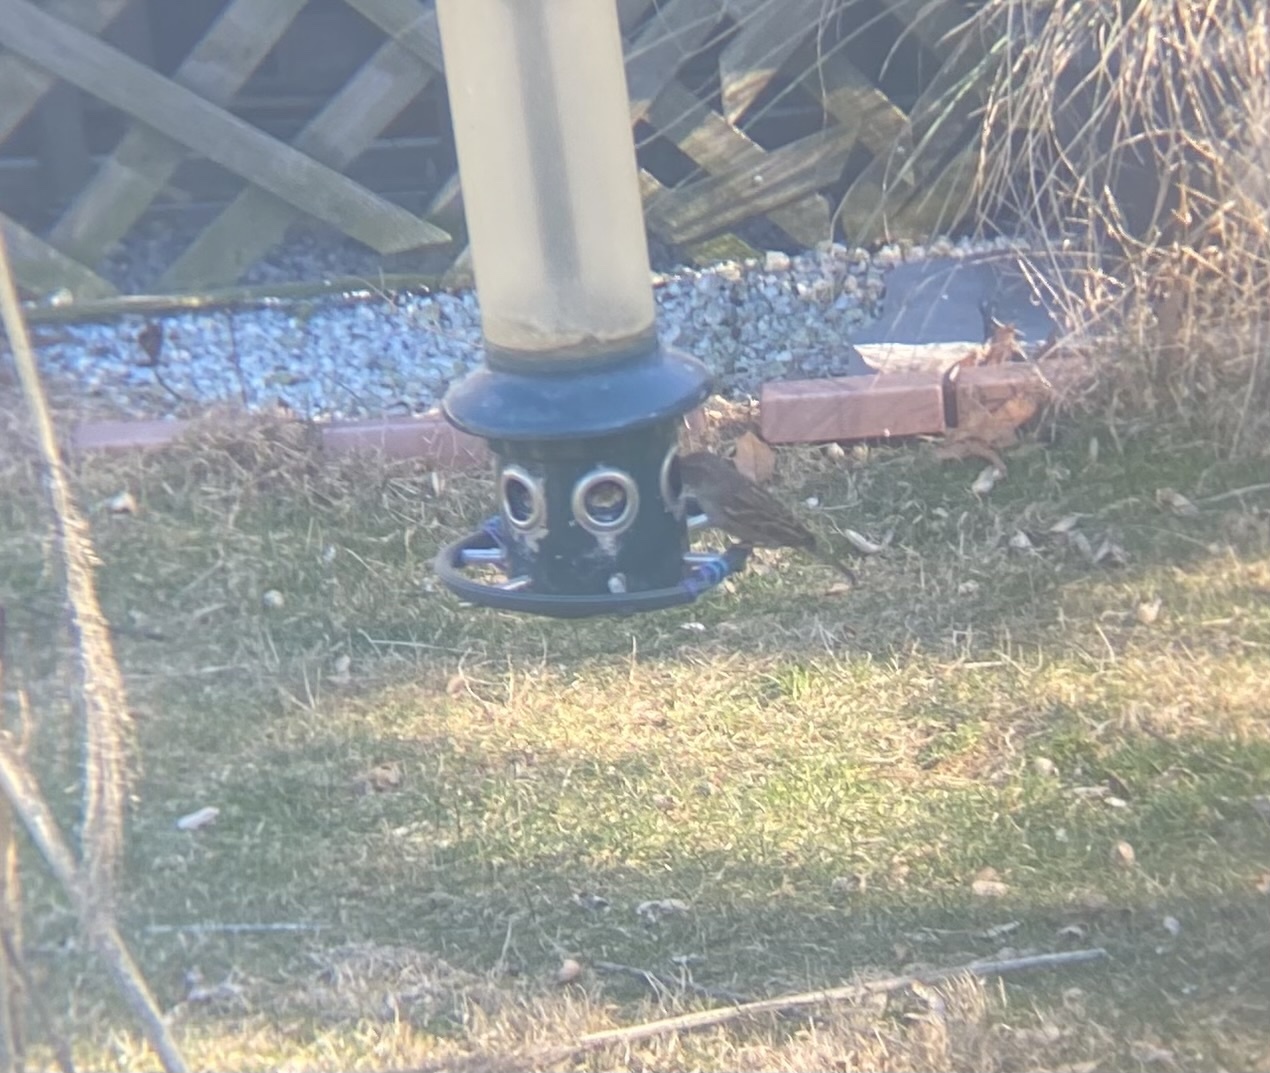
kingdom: Animalia
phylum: Chordata
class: Aves
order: Passeriformes
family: Passeridae
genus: Passer
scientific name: Passer domesticus
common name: House sparrow
